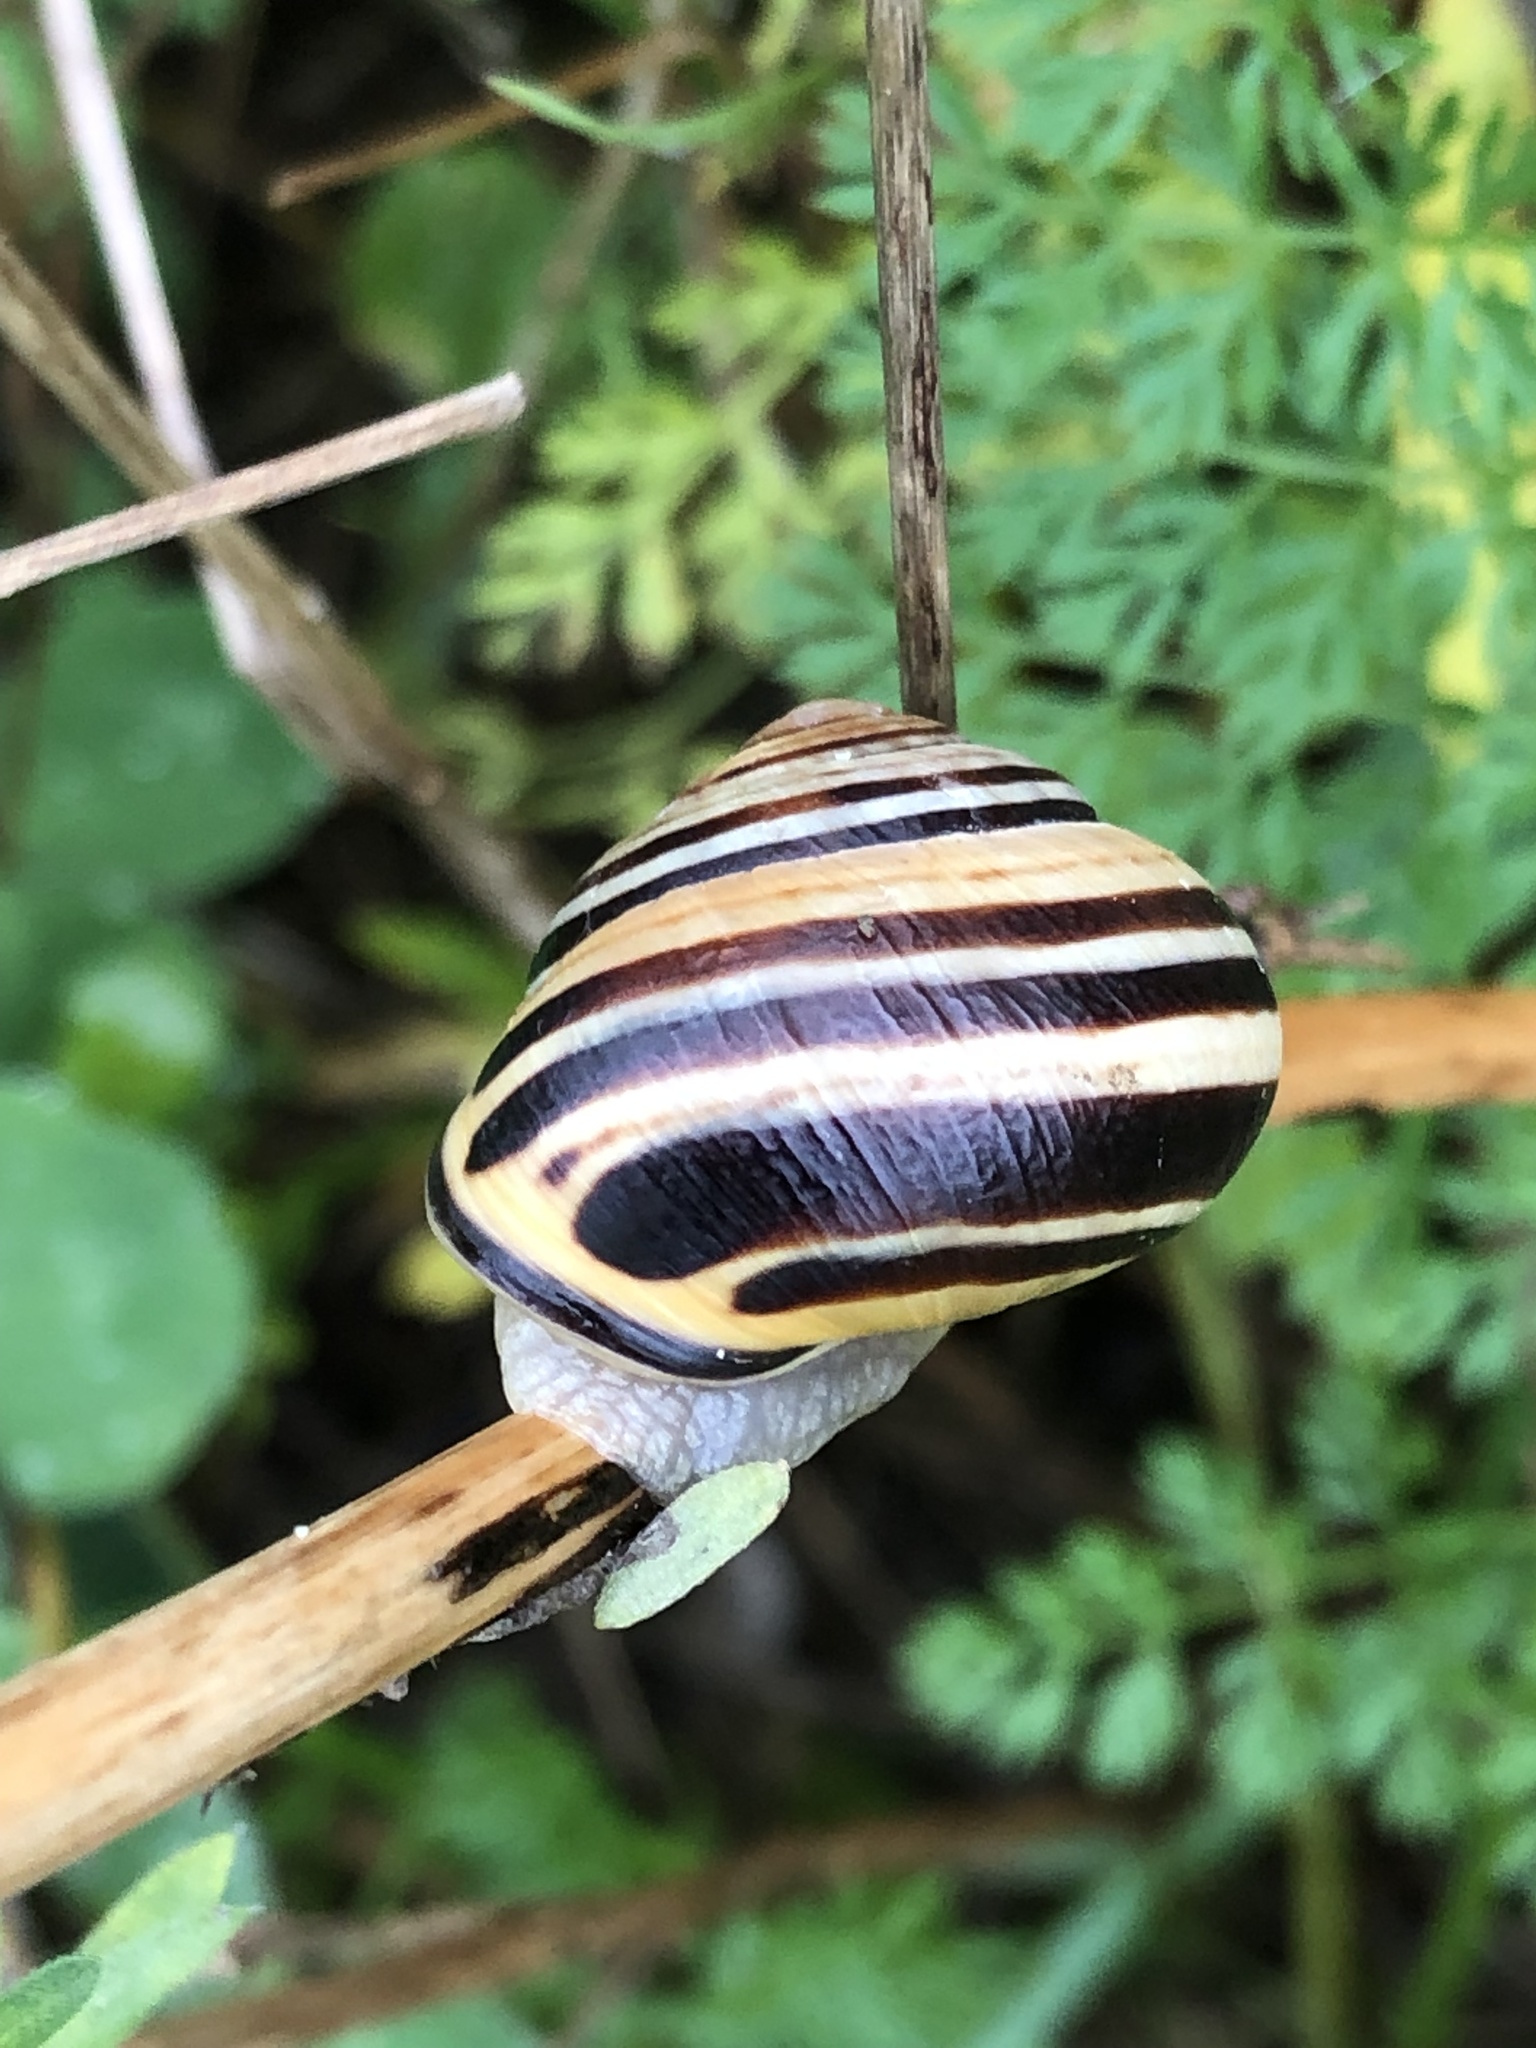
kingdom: Animalia
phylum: Mollusca
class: Gastropoda
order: Stylommatophora
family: Helicidae
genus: Cepaea
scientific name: Cepaea nemoralis
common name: Grovesnail
